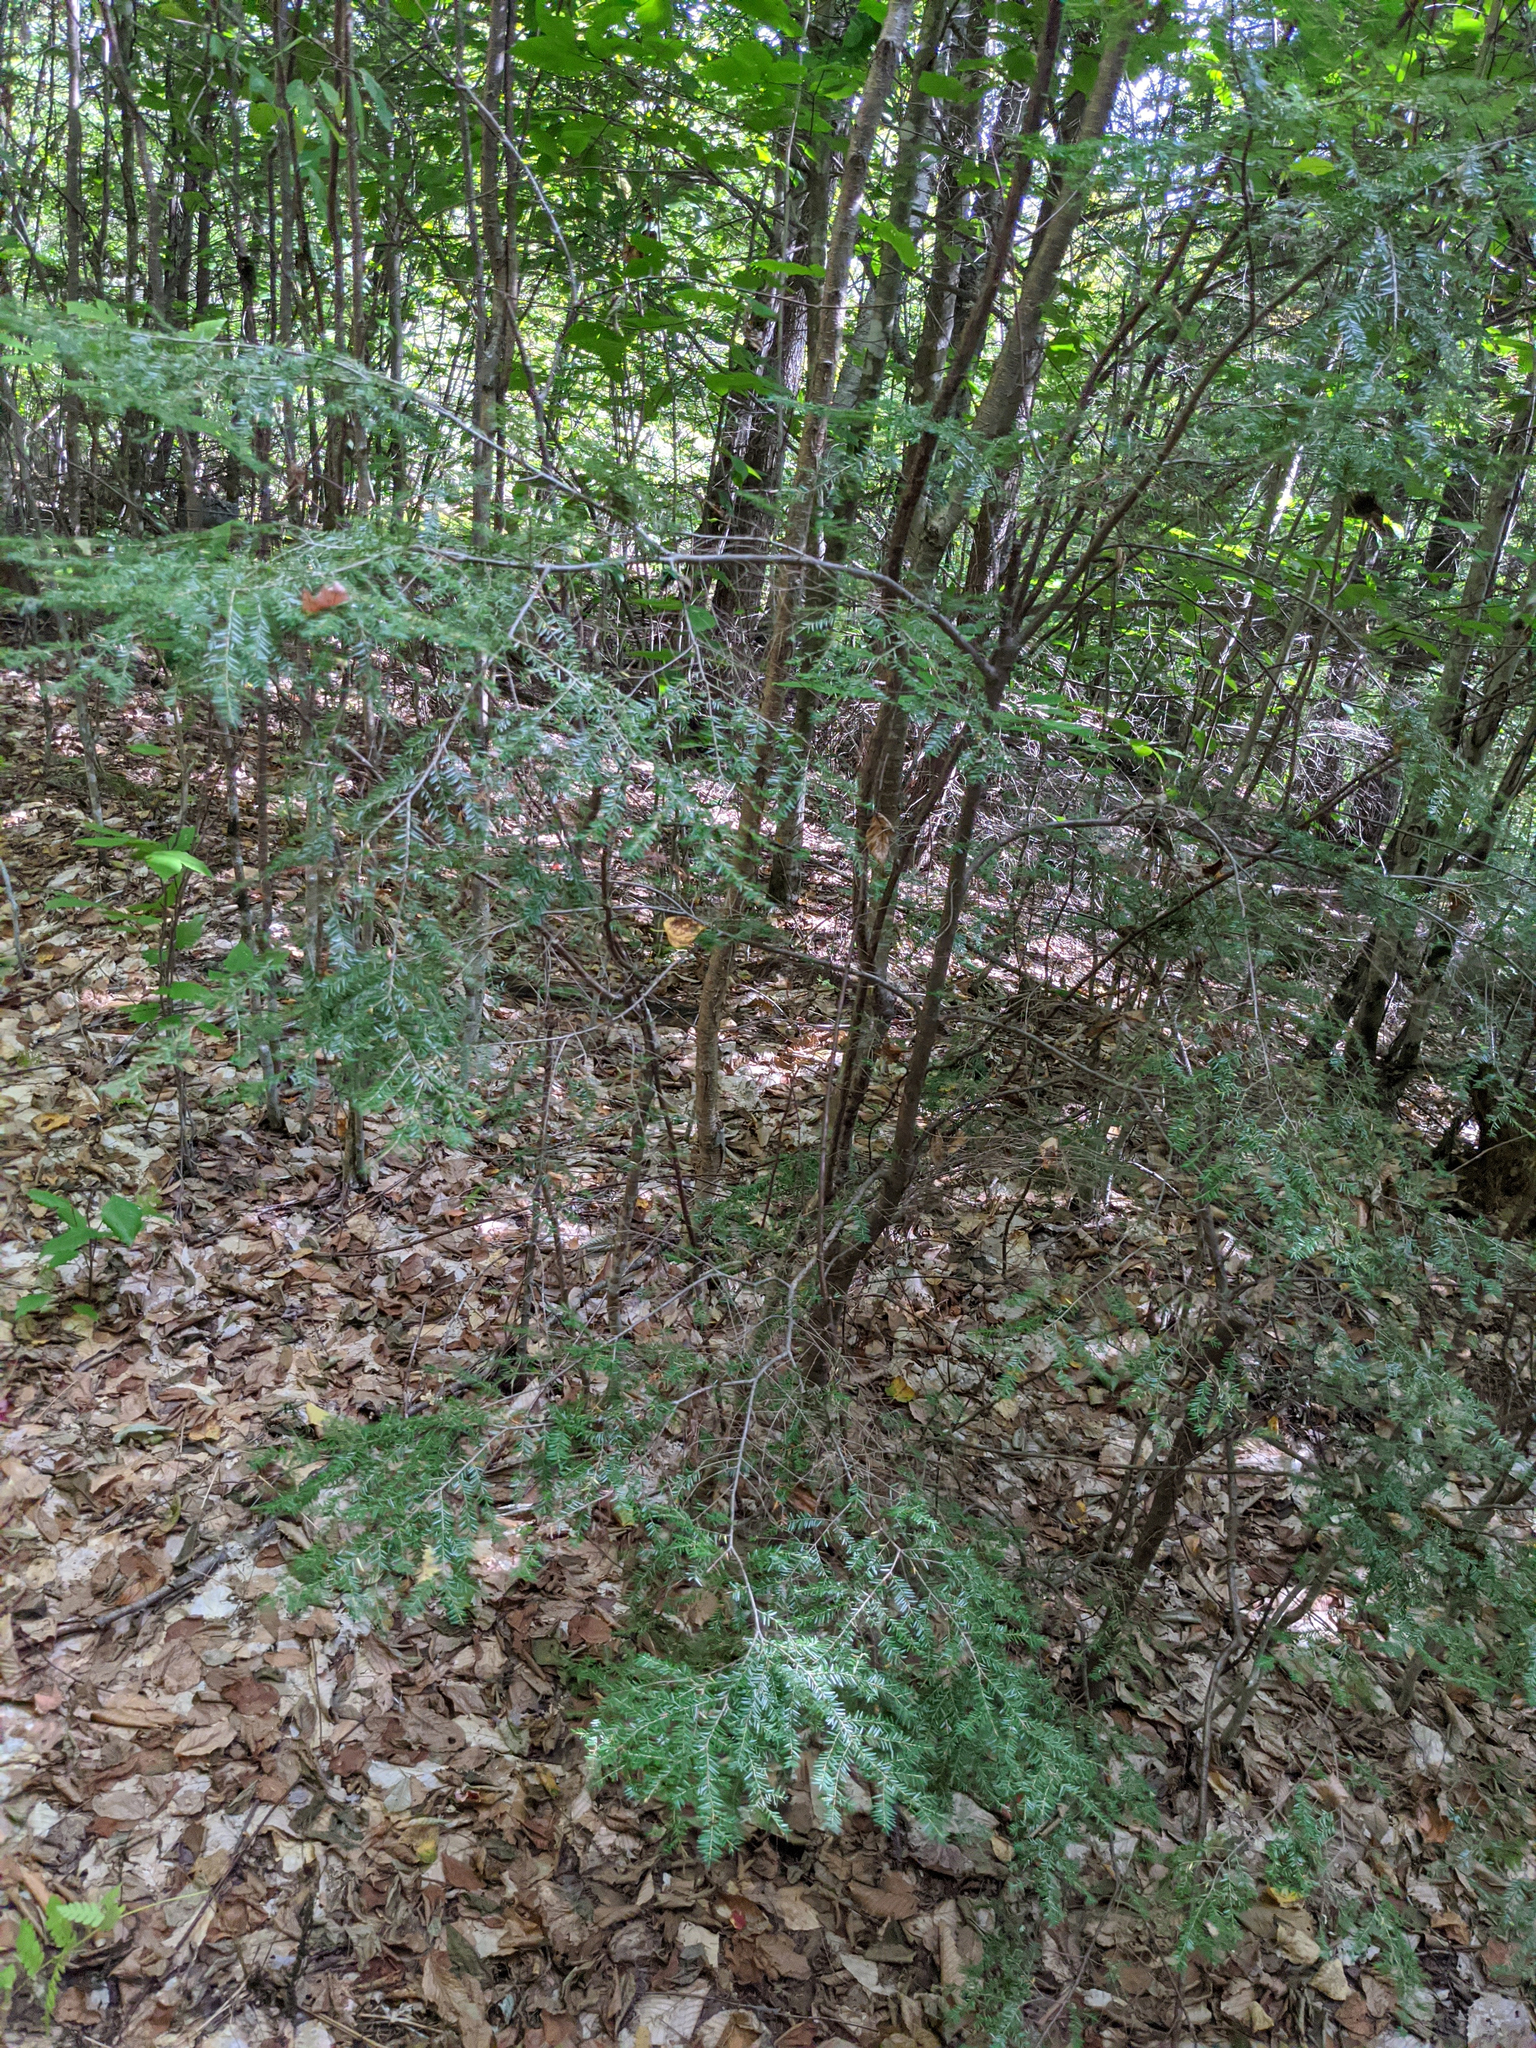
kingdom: Plantae
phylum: Tracheophyta
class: Pinopsida
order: Pinales
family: Pinaceae
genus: Tsuga
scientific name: Tsuga canadensis
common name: Eastern hemlock
